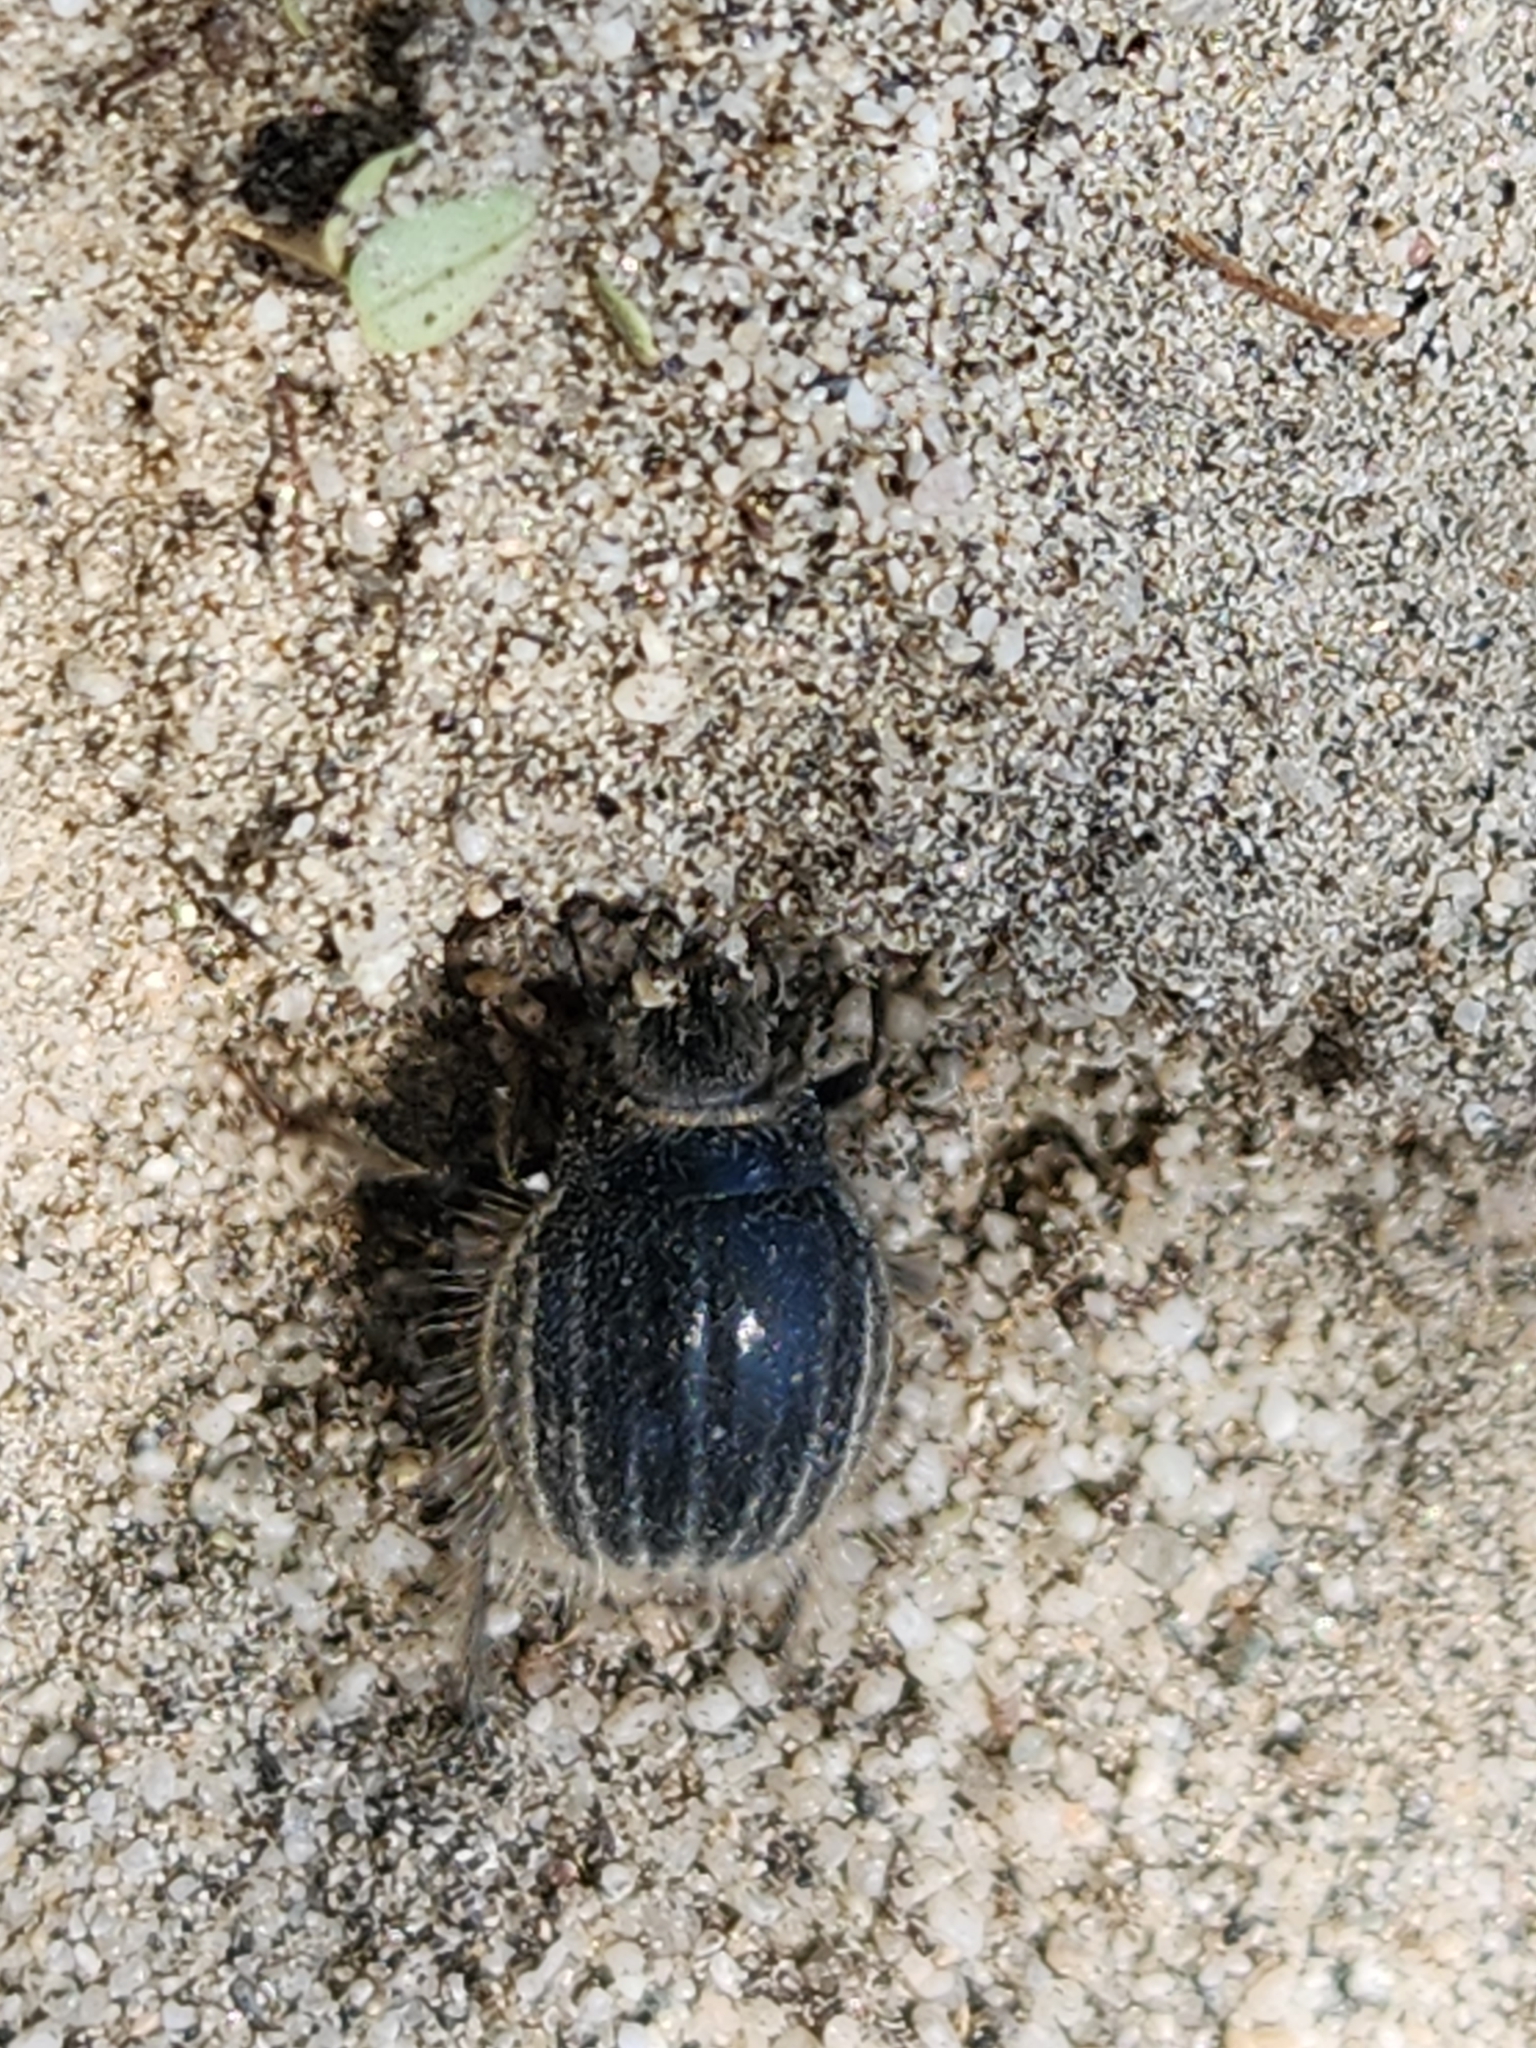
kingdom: Animalia
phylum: Arthropoda
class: Insecta
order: Coleoptera
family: Tenebrionidae
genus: Edrotes
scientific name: Edrotes ventricosus
